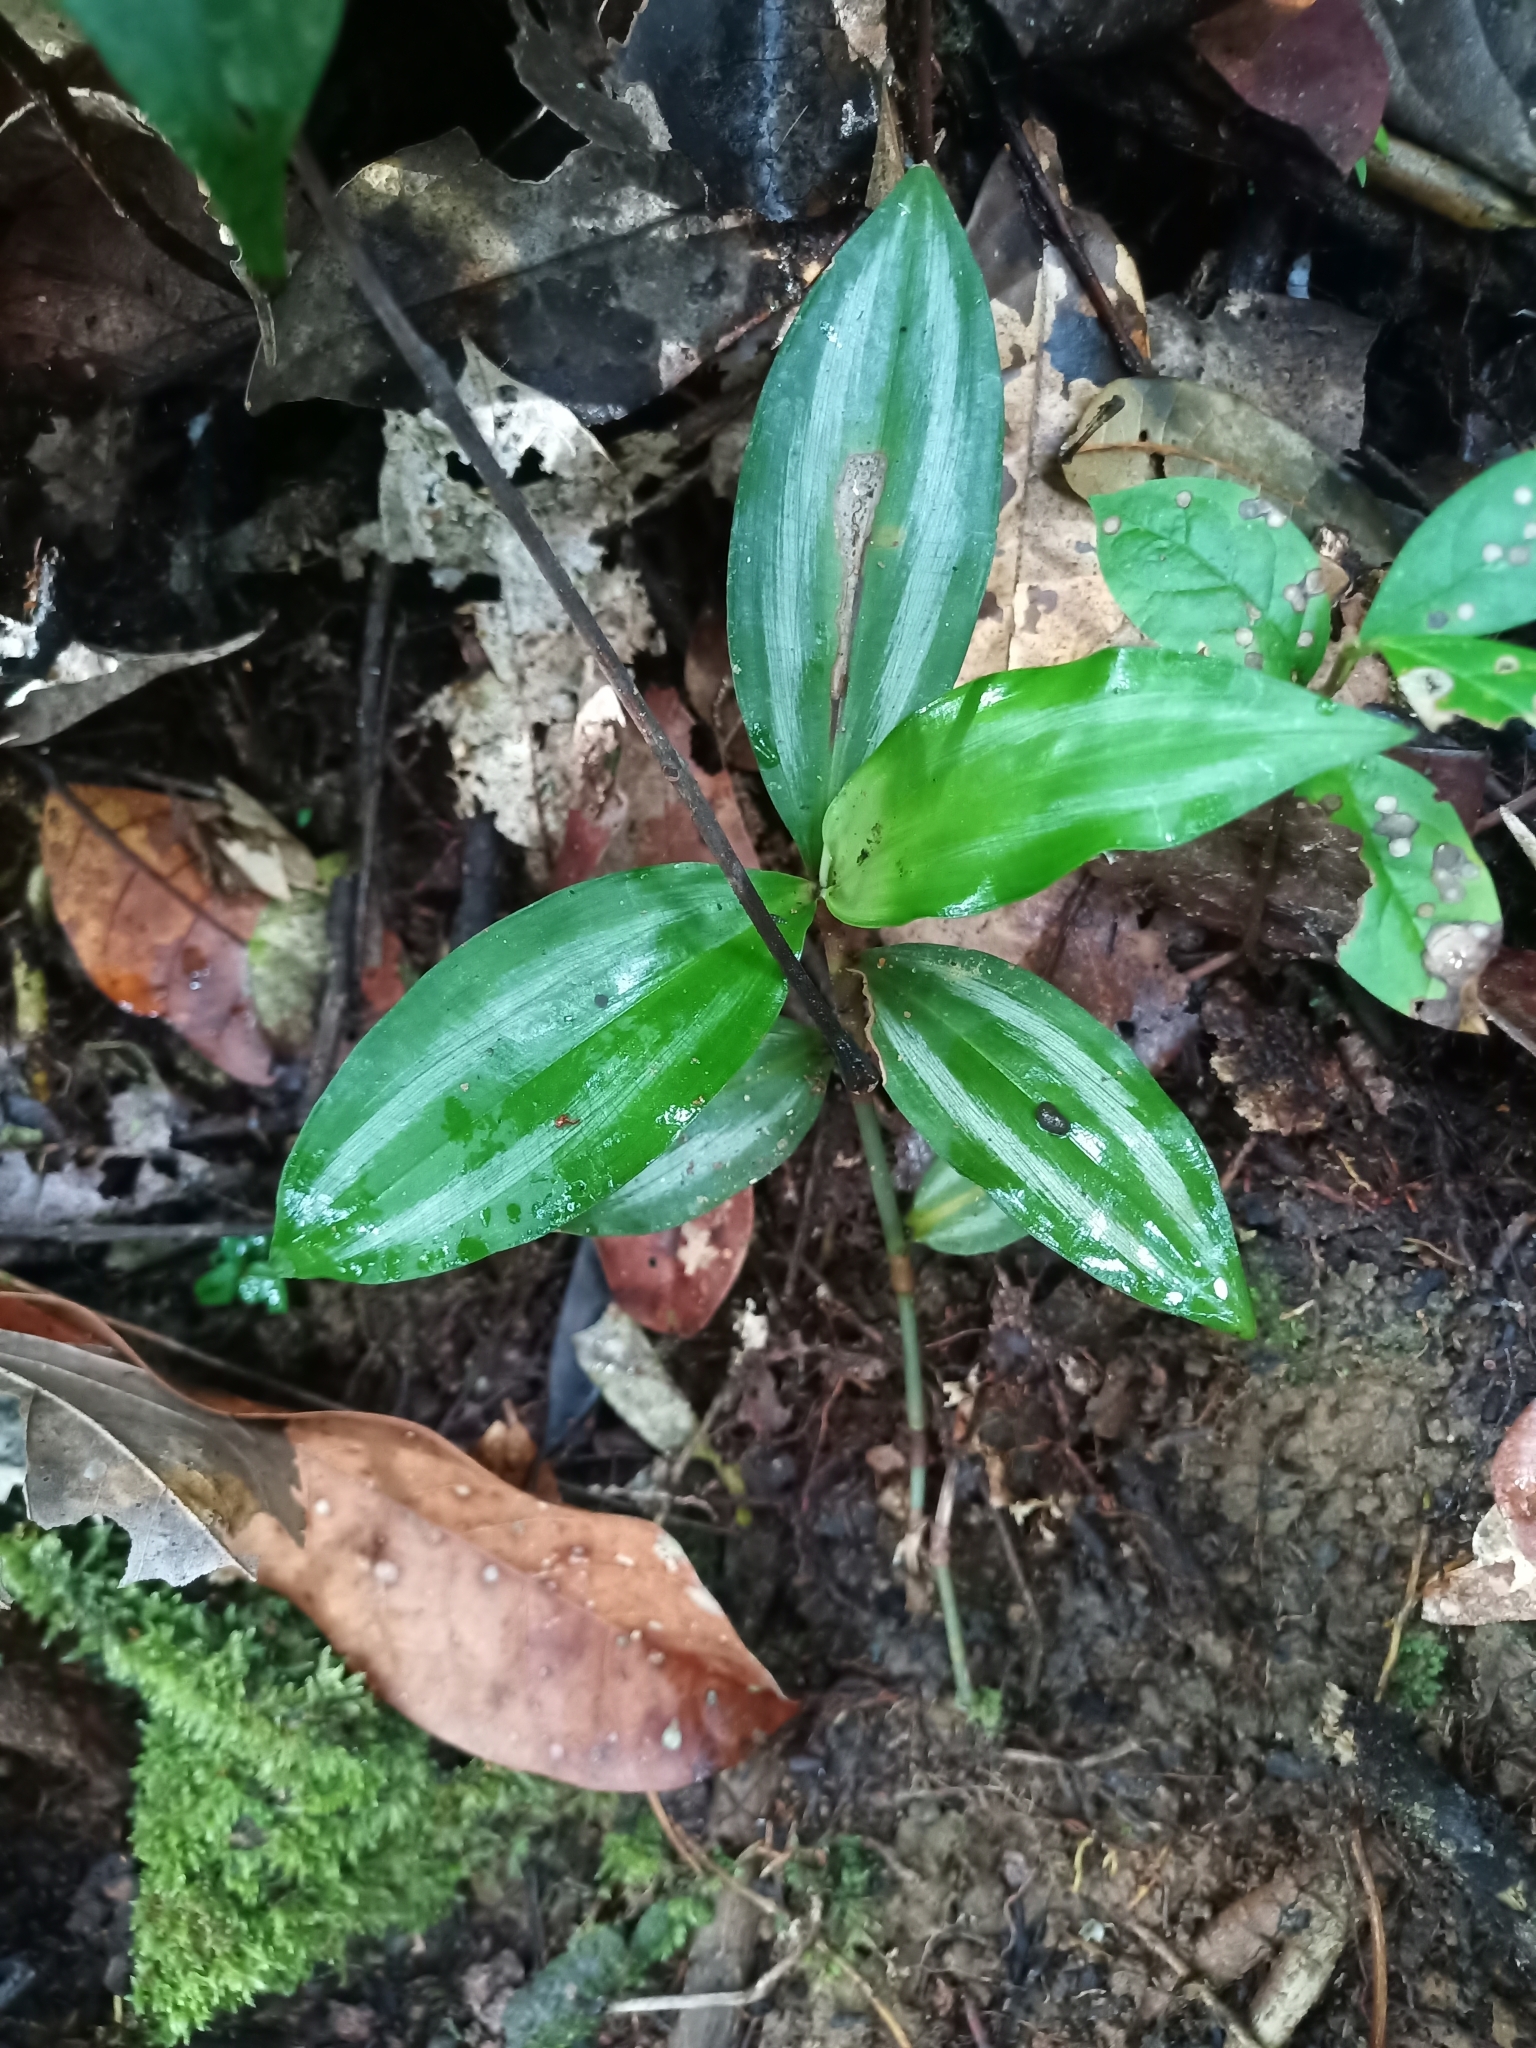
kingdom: Plantae
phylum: Tracheophyta
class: Liliopsida
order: Commelinales
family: Commelinaceae
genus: Buforrestia
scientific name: Buforrestia candolleana
